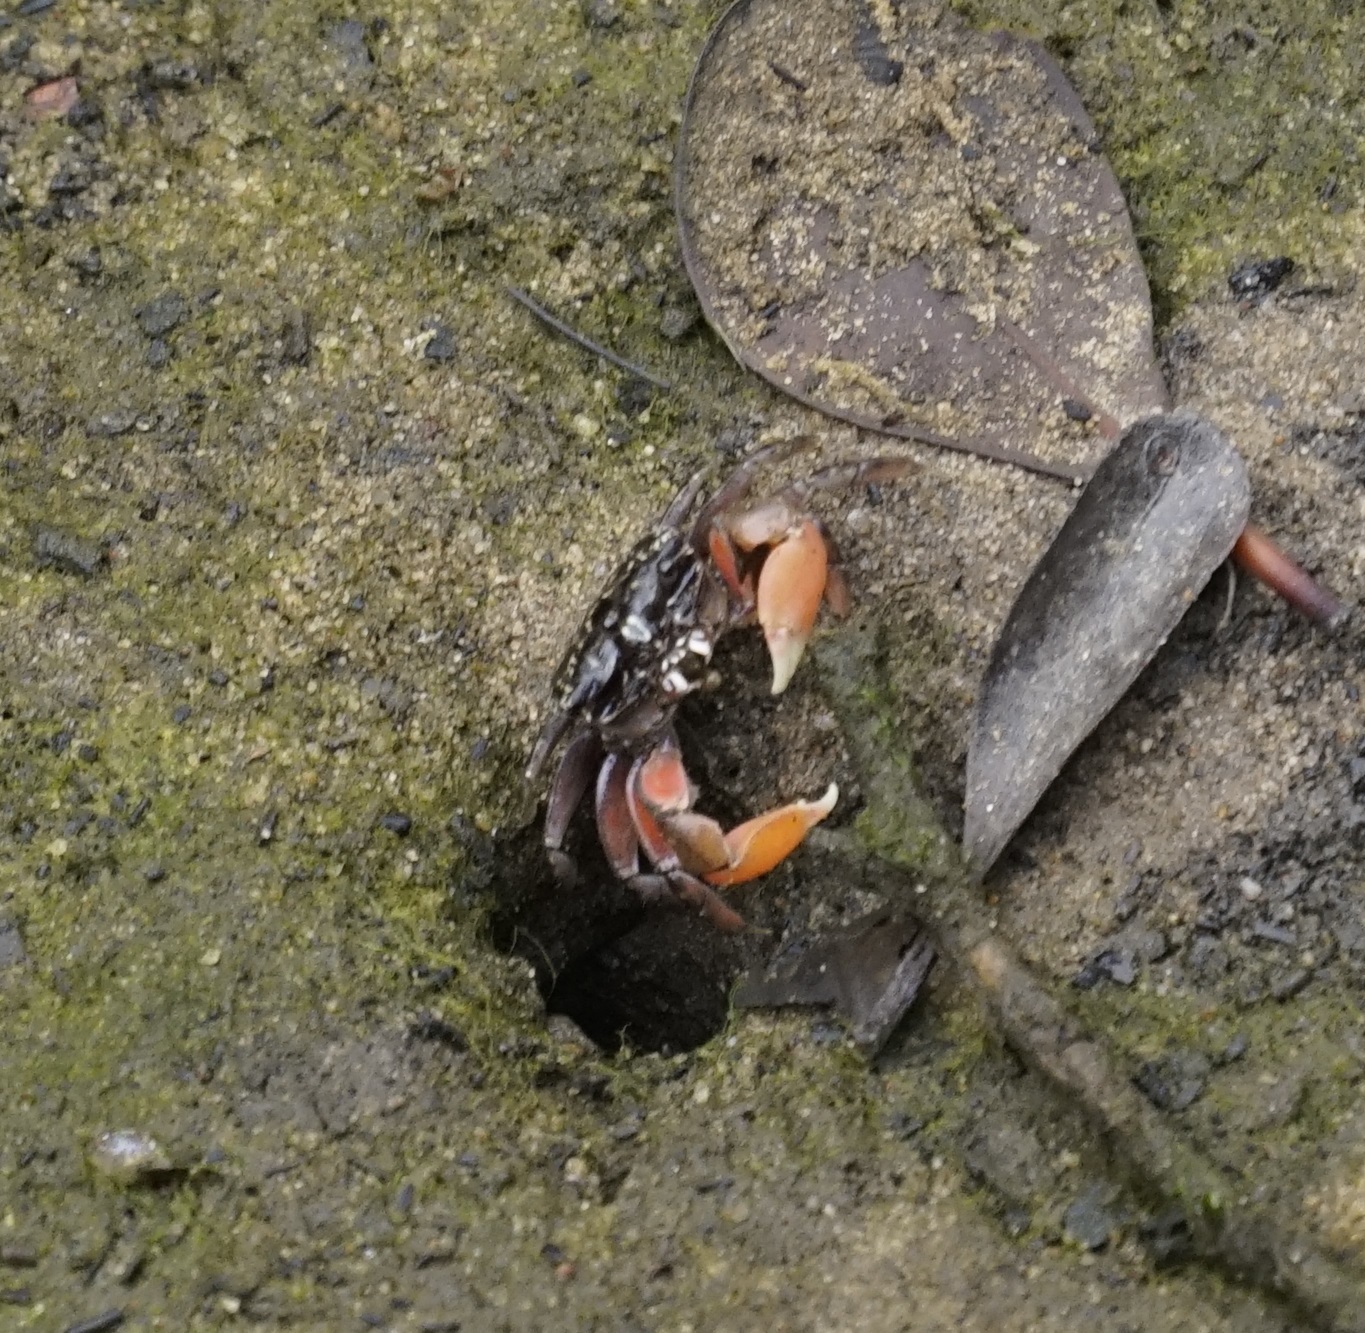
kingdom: Animalia
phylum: Arthropoda
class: Malacostraca
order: Decapoda
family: Heloeciidae
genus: Heloecius
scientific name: Heloecius cordiformis
